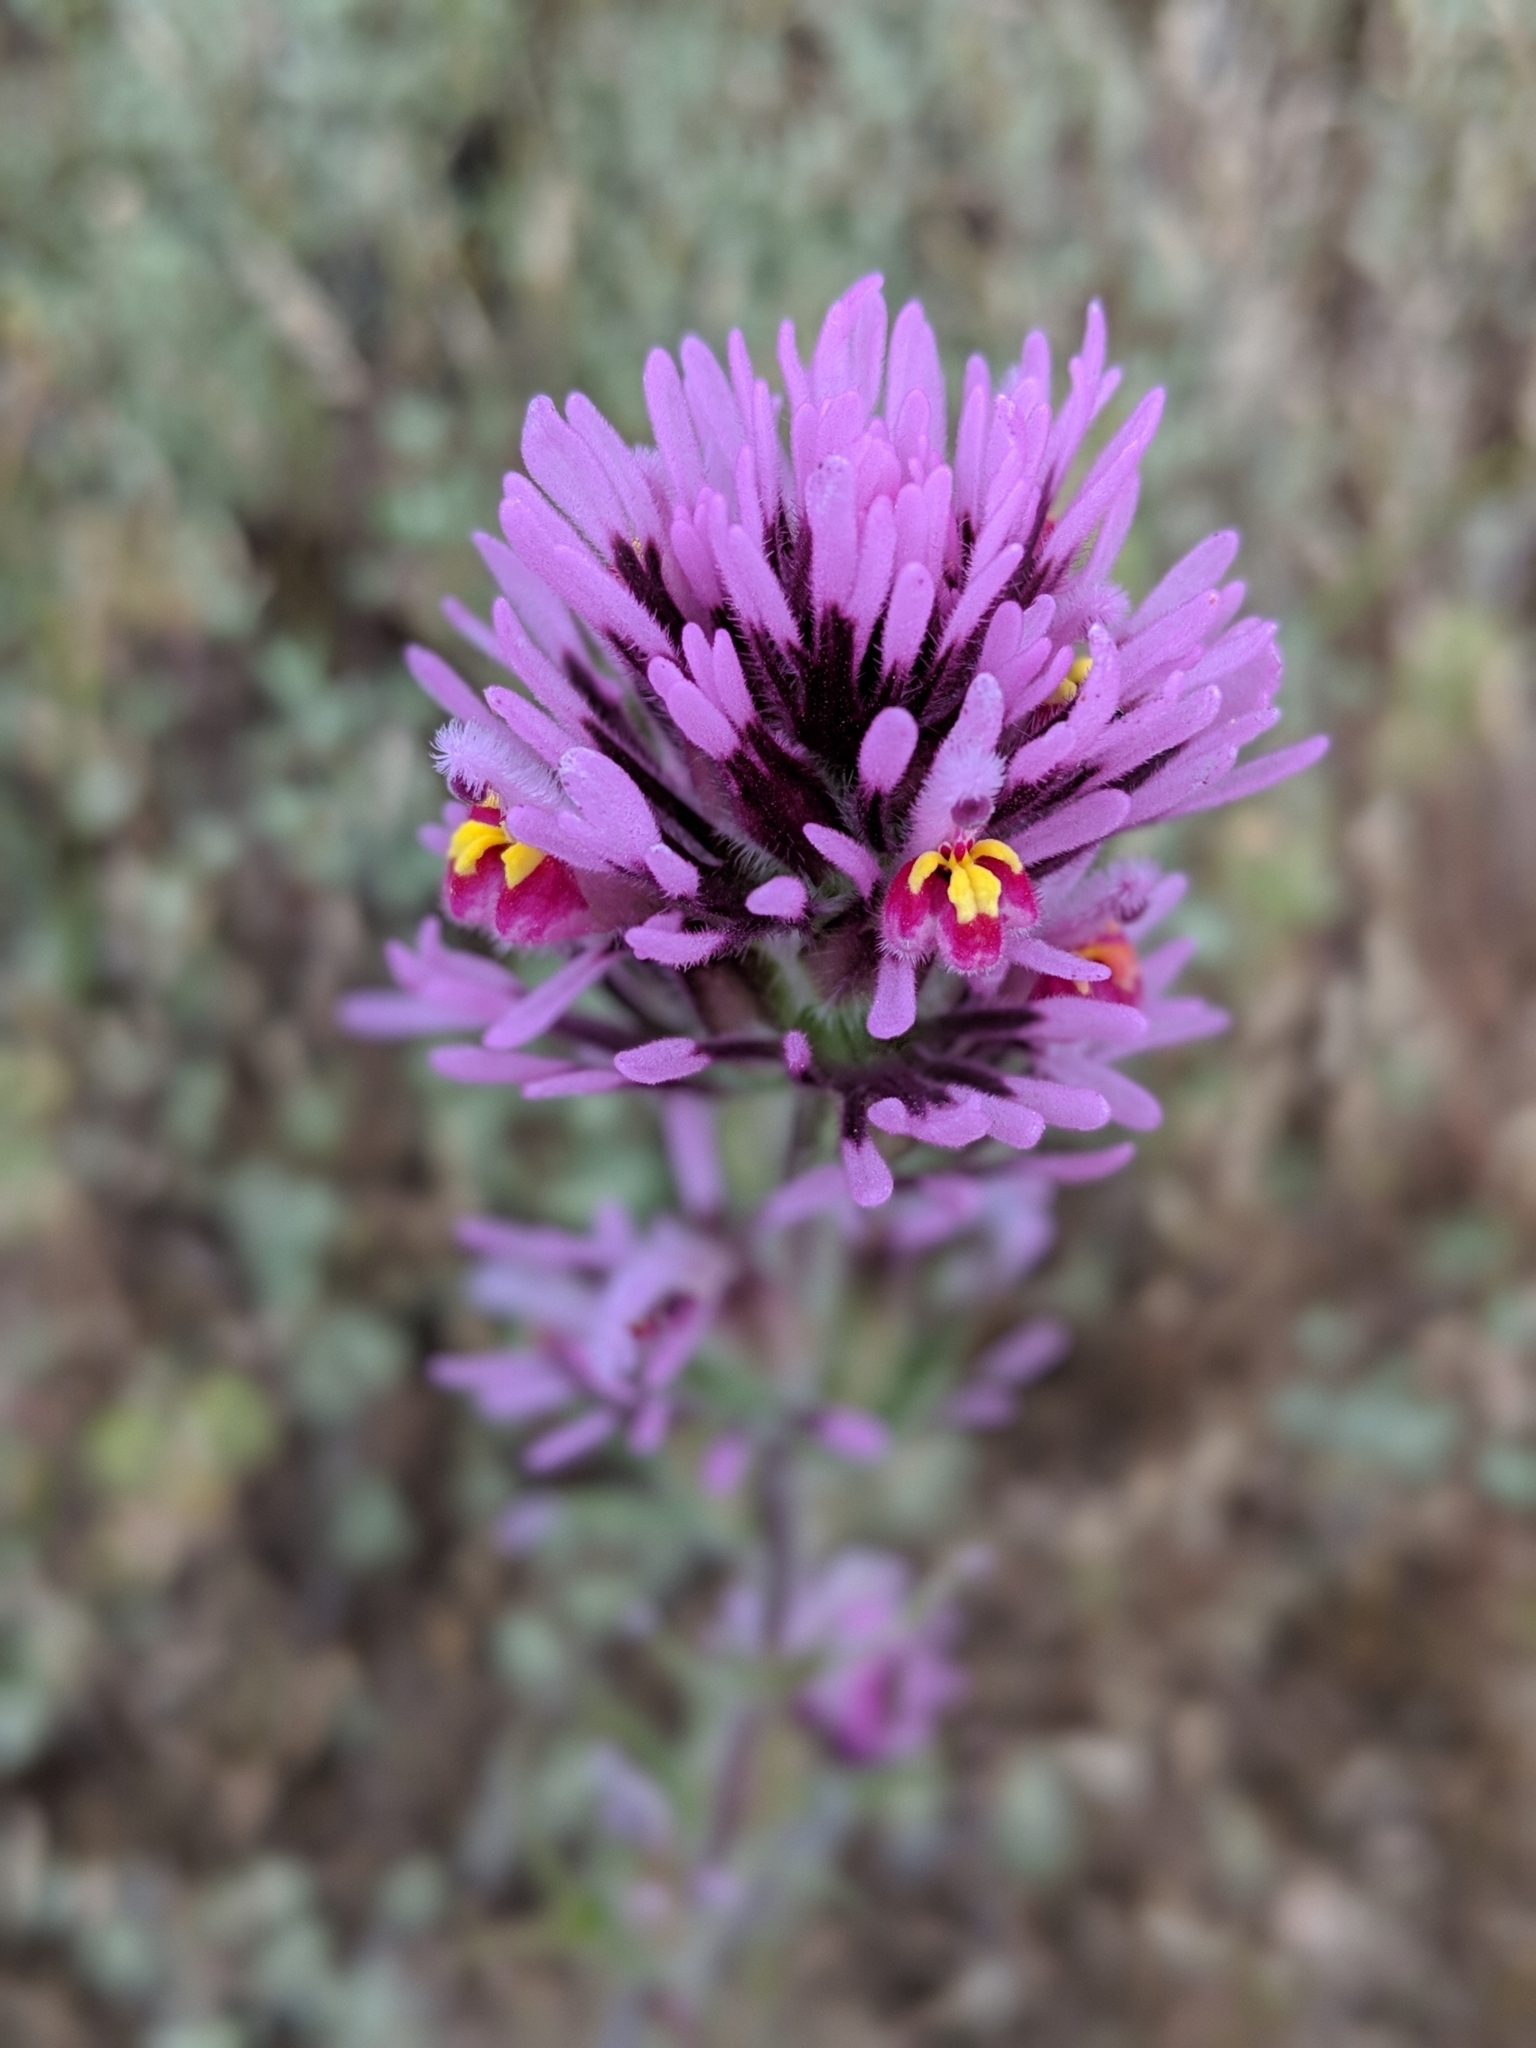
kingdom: Plantae
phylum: Tracheophyta
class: Magnoliopsida
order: Lamiales
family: Orobanchaceae
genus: Castilleja
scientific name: Castilleja exserta
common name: Purple owl-clover
